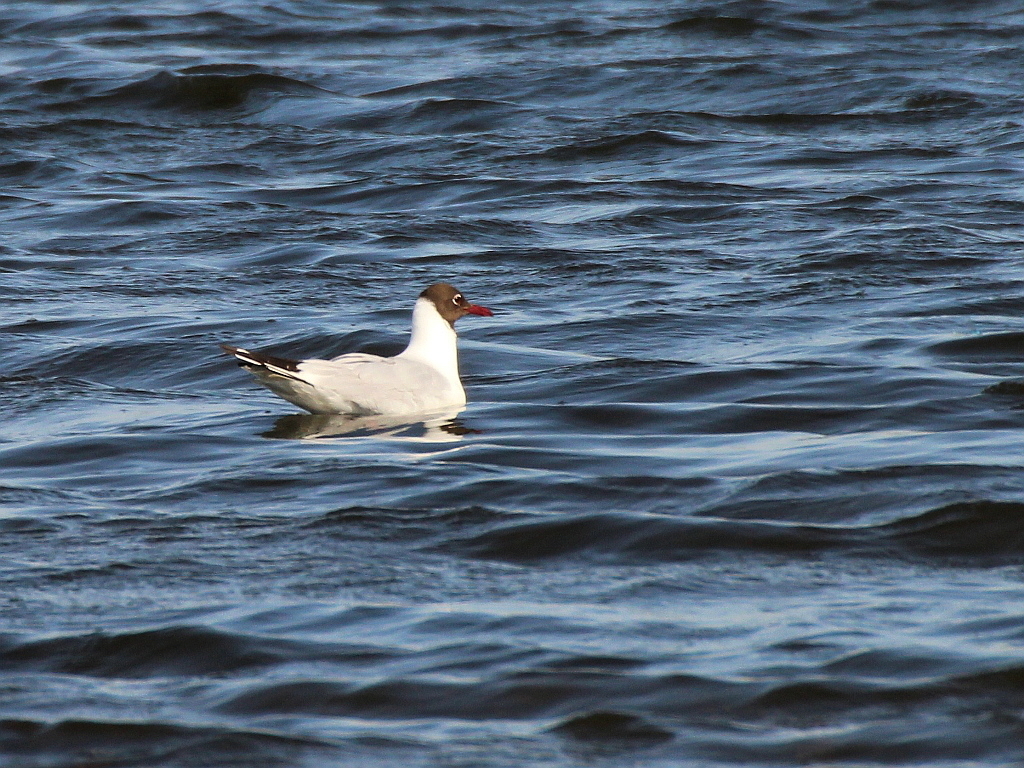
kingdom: Animalia
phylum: Chordata
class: Aves
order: Charadriiformes
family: Laridae
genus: Chroicocephalus
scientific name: Chroicocephalus ridibundus
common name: Black-headed gull
